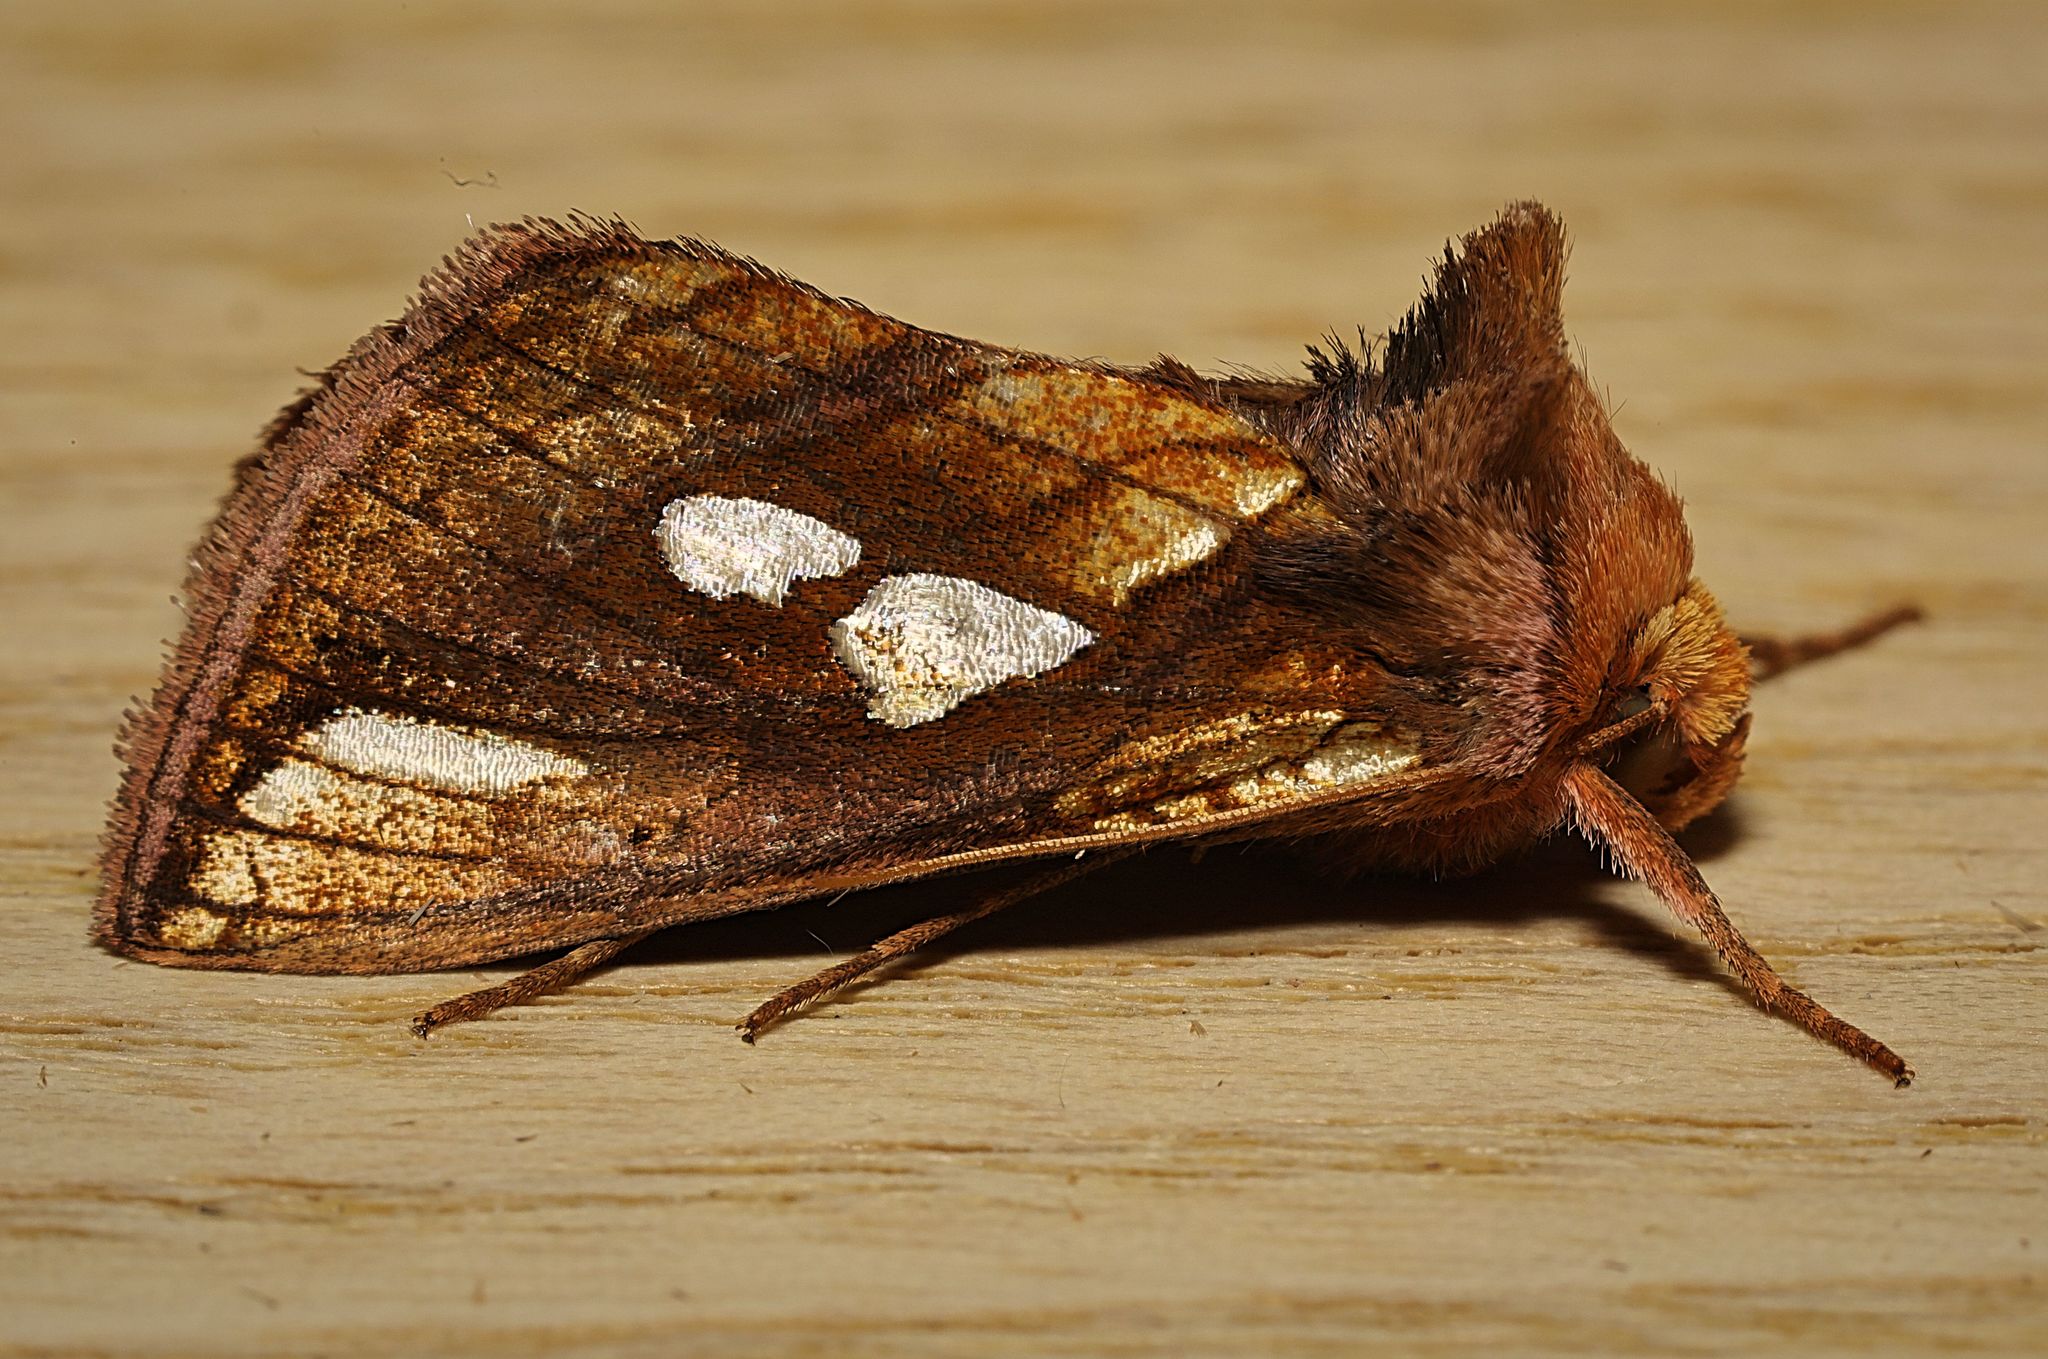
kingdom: Animalia
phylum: Arthropoda
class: Insecta
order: Lepidoptera
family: Noctuidae
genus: Plusia
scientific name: Plusia festucae
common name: Gold spot
